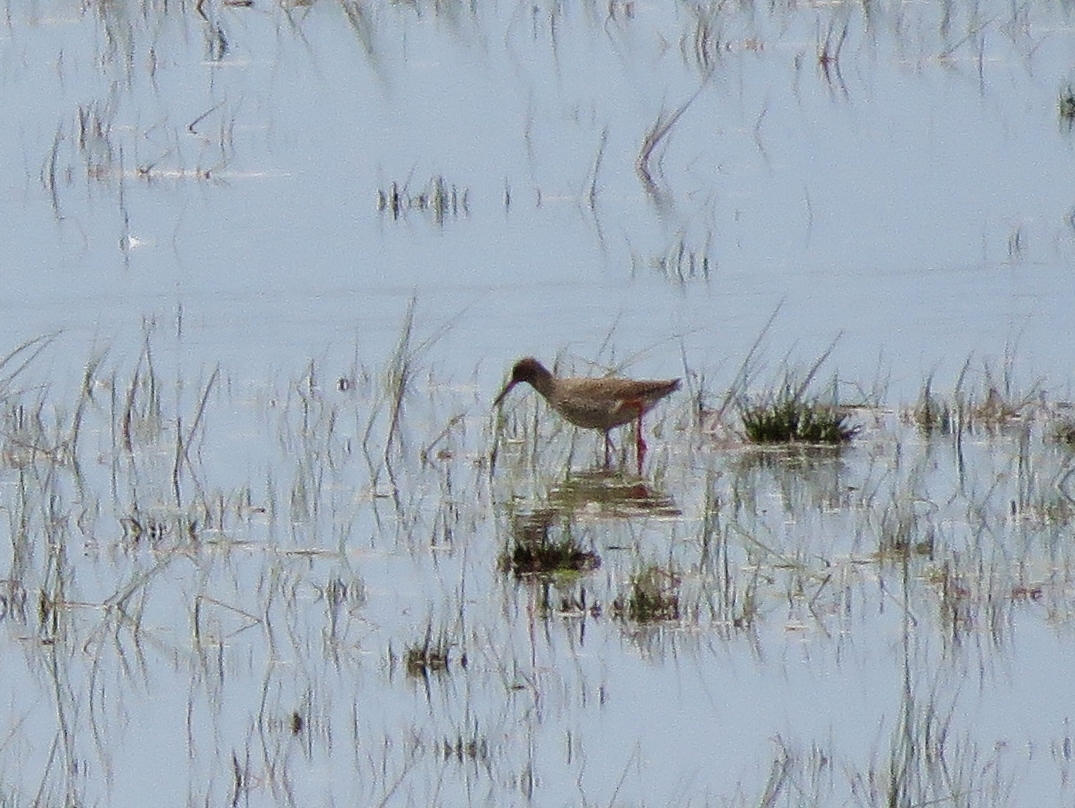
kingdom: Animalia
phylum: Chordata
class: Aves
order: Charadriiformes
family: Scolopacidae
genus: Tringa
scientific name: Tringa totanus
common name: Common redshank
